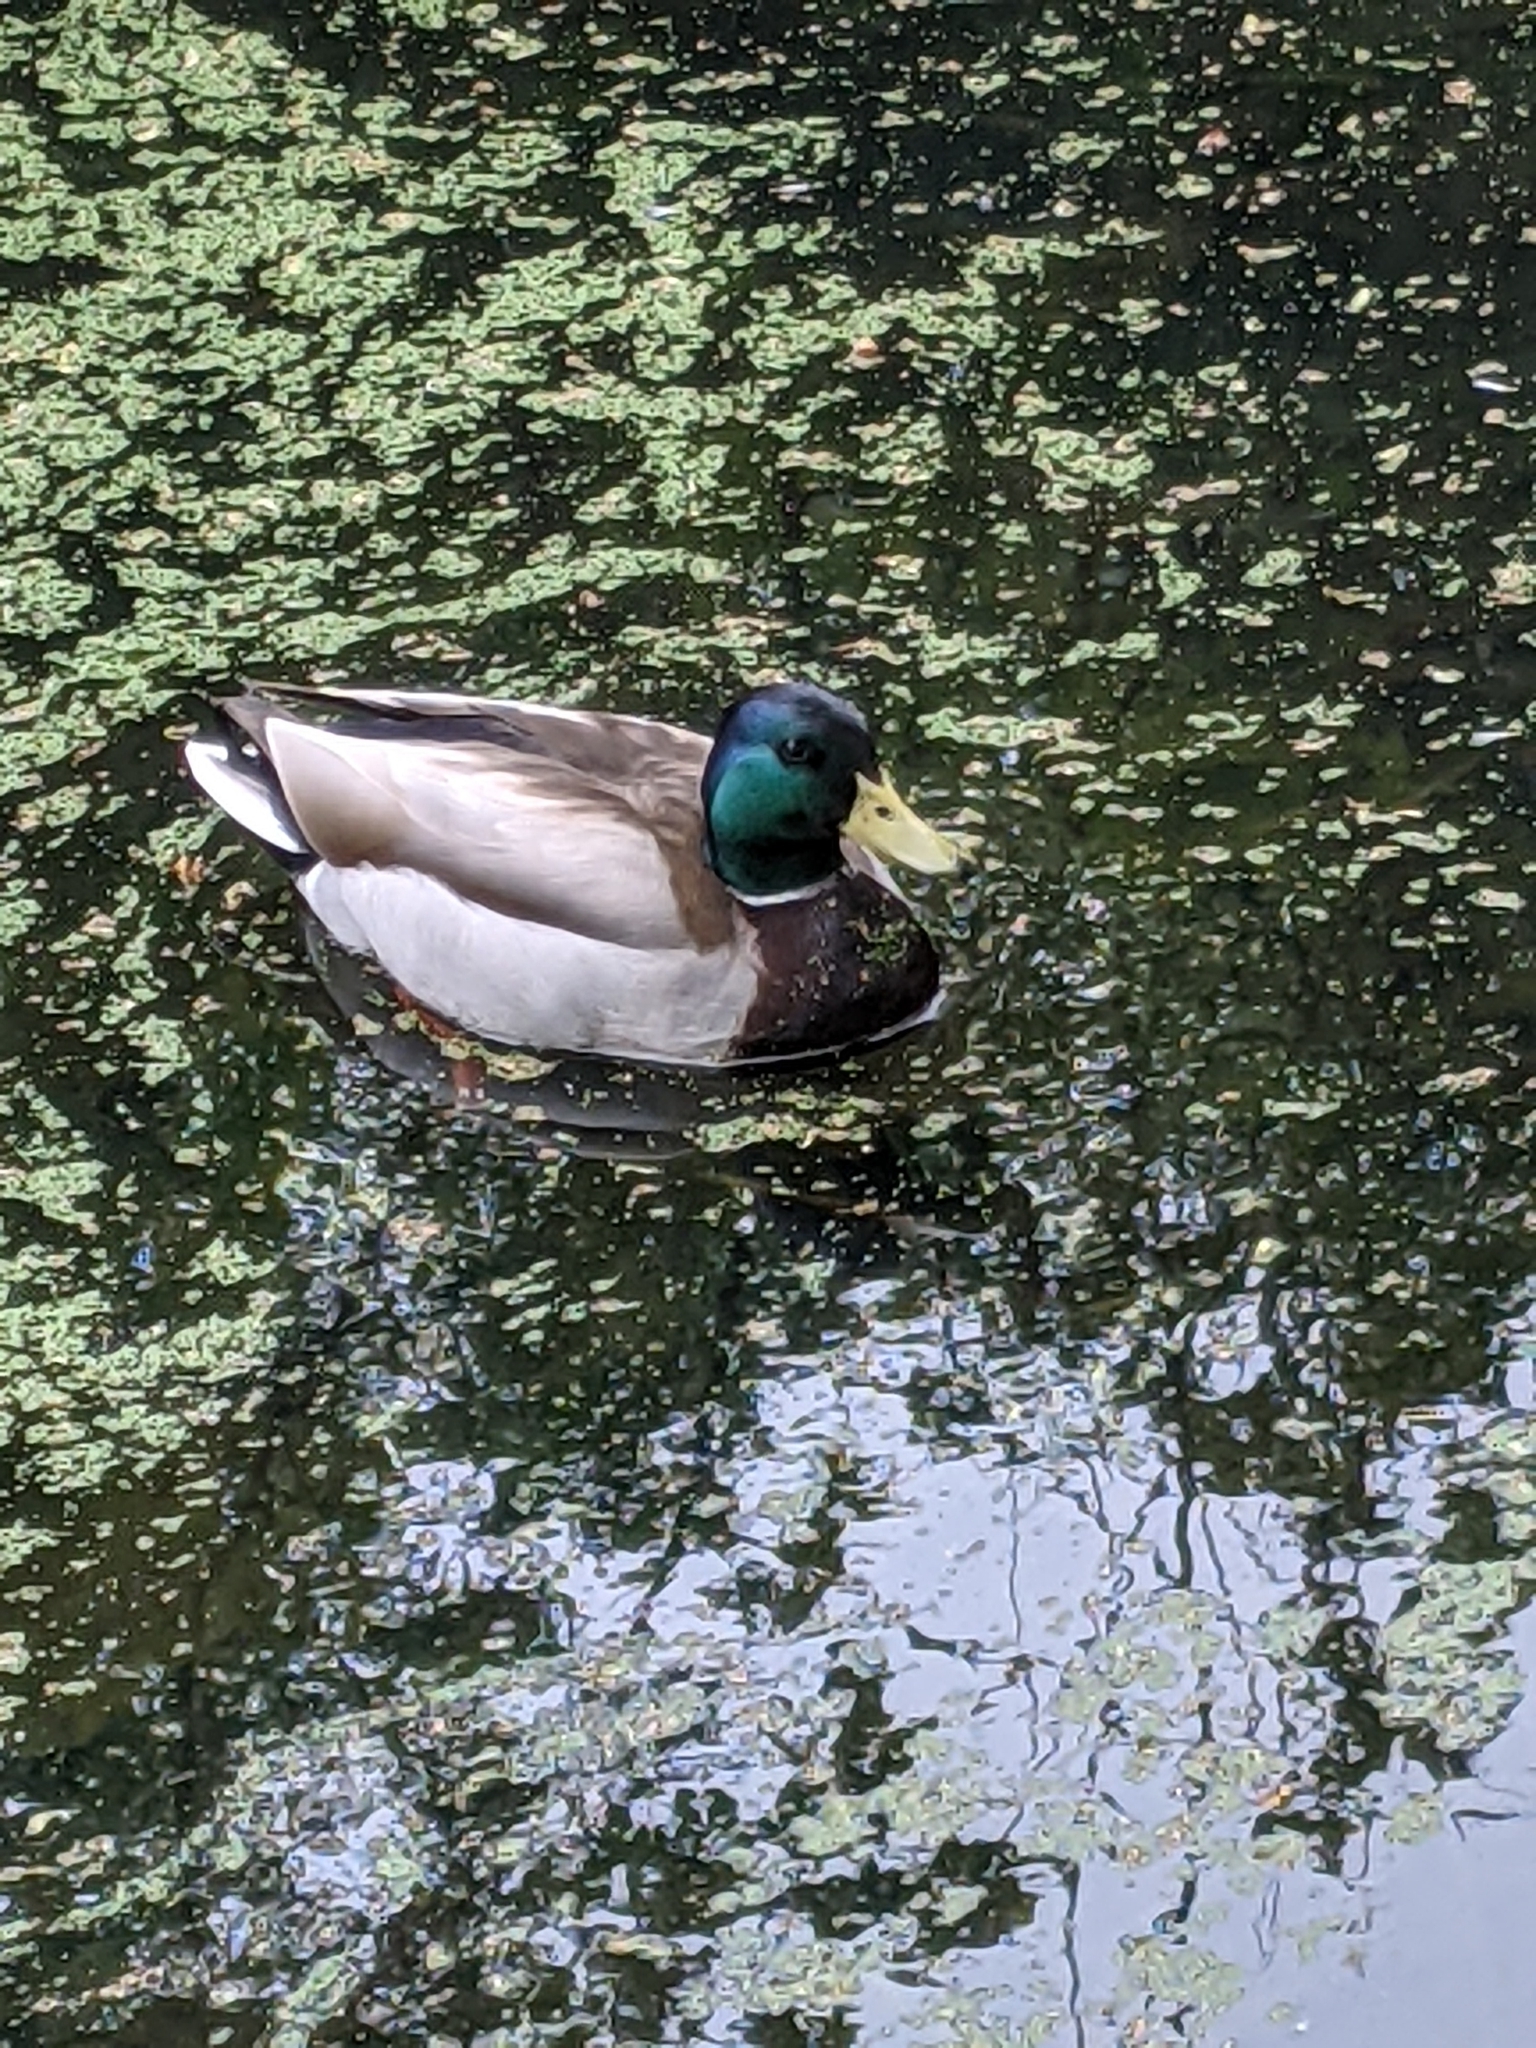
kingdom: Animalia
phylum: Chordata
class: Aves
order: Anseriformes
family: Anatidae
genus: Anas
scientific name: Anas platyrhynchos
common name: Mallard
